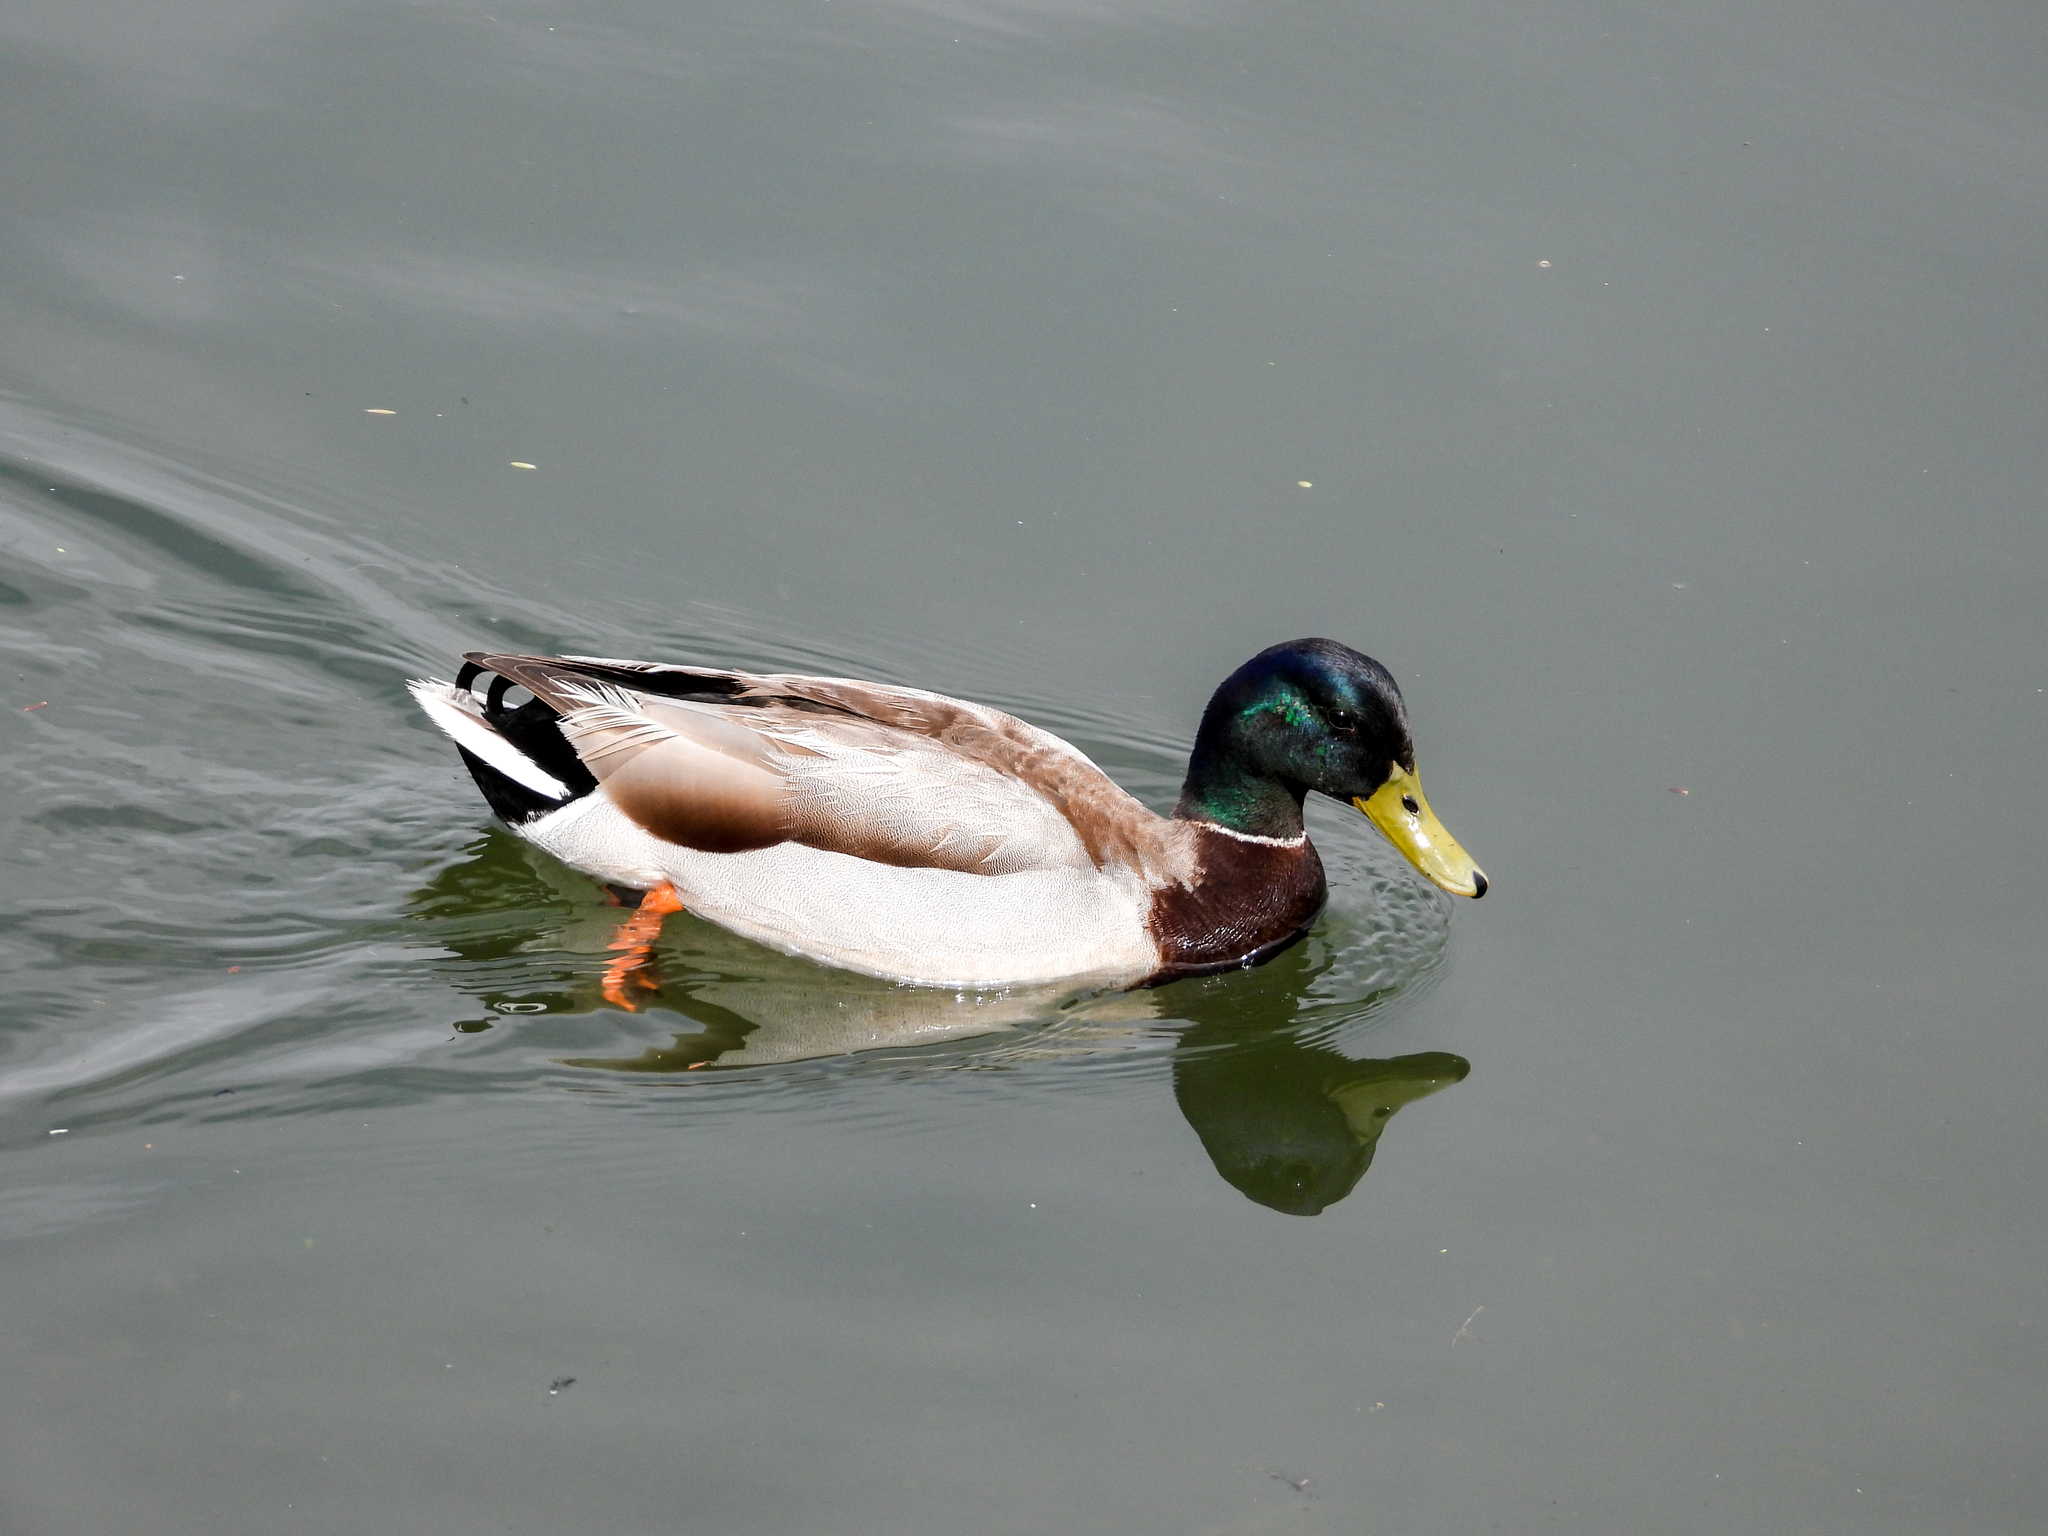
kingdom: Animalia
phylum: Chordata
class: Aves
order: Anseriformes
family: Anatidae
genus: Anas
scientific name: Anas platyrhynchos
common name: Mallard
